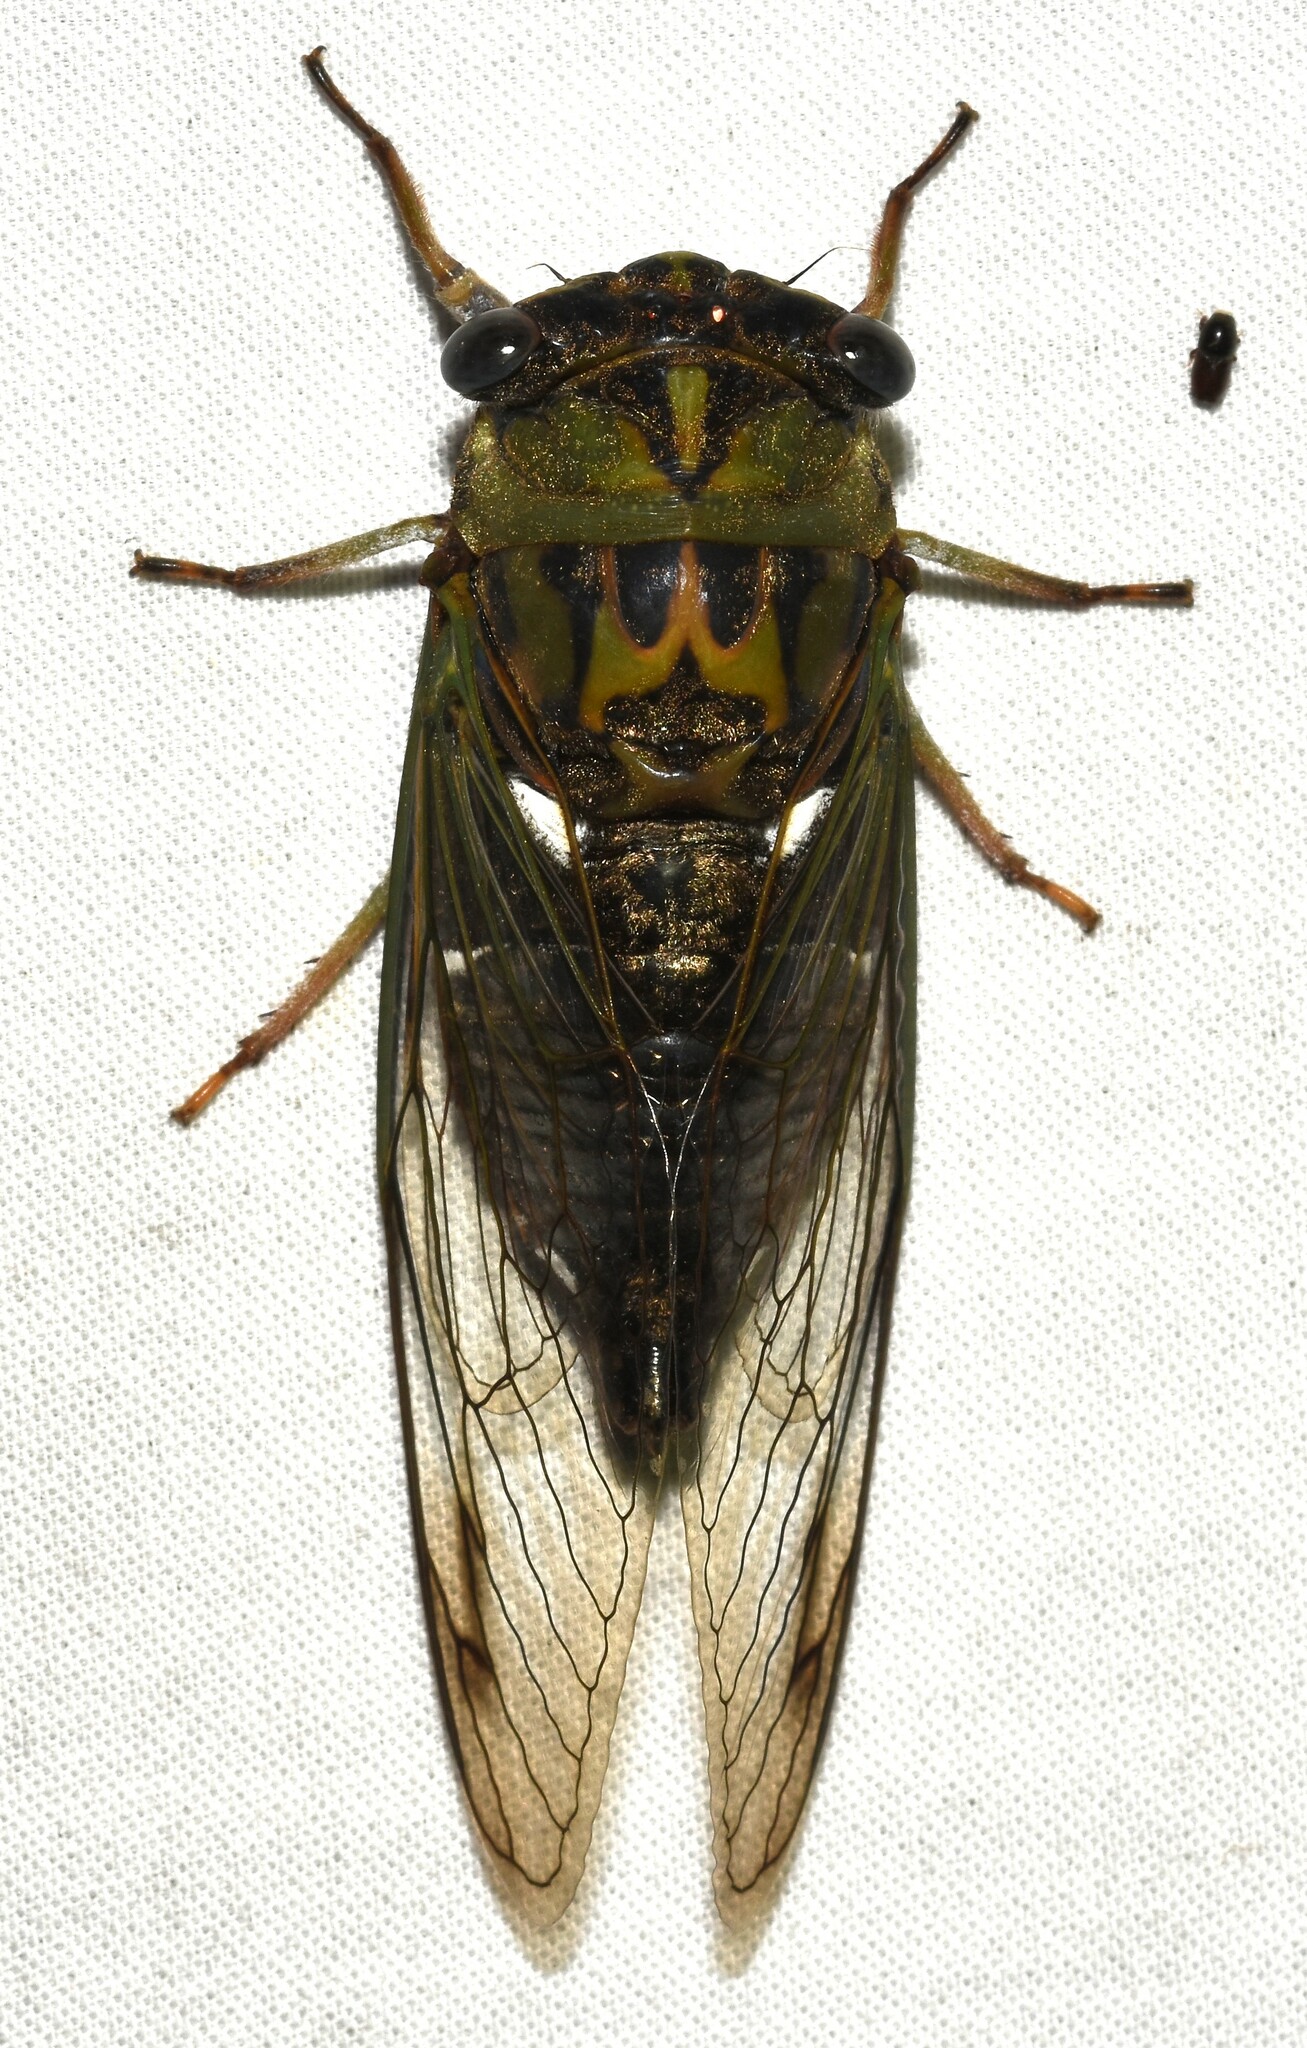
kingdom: Animalia
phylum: Arthropoda
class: Insecta
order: Hemiptera
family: Cicadidae
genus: Neotibicen
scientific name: Neotibicen pruinosus
